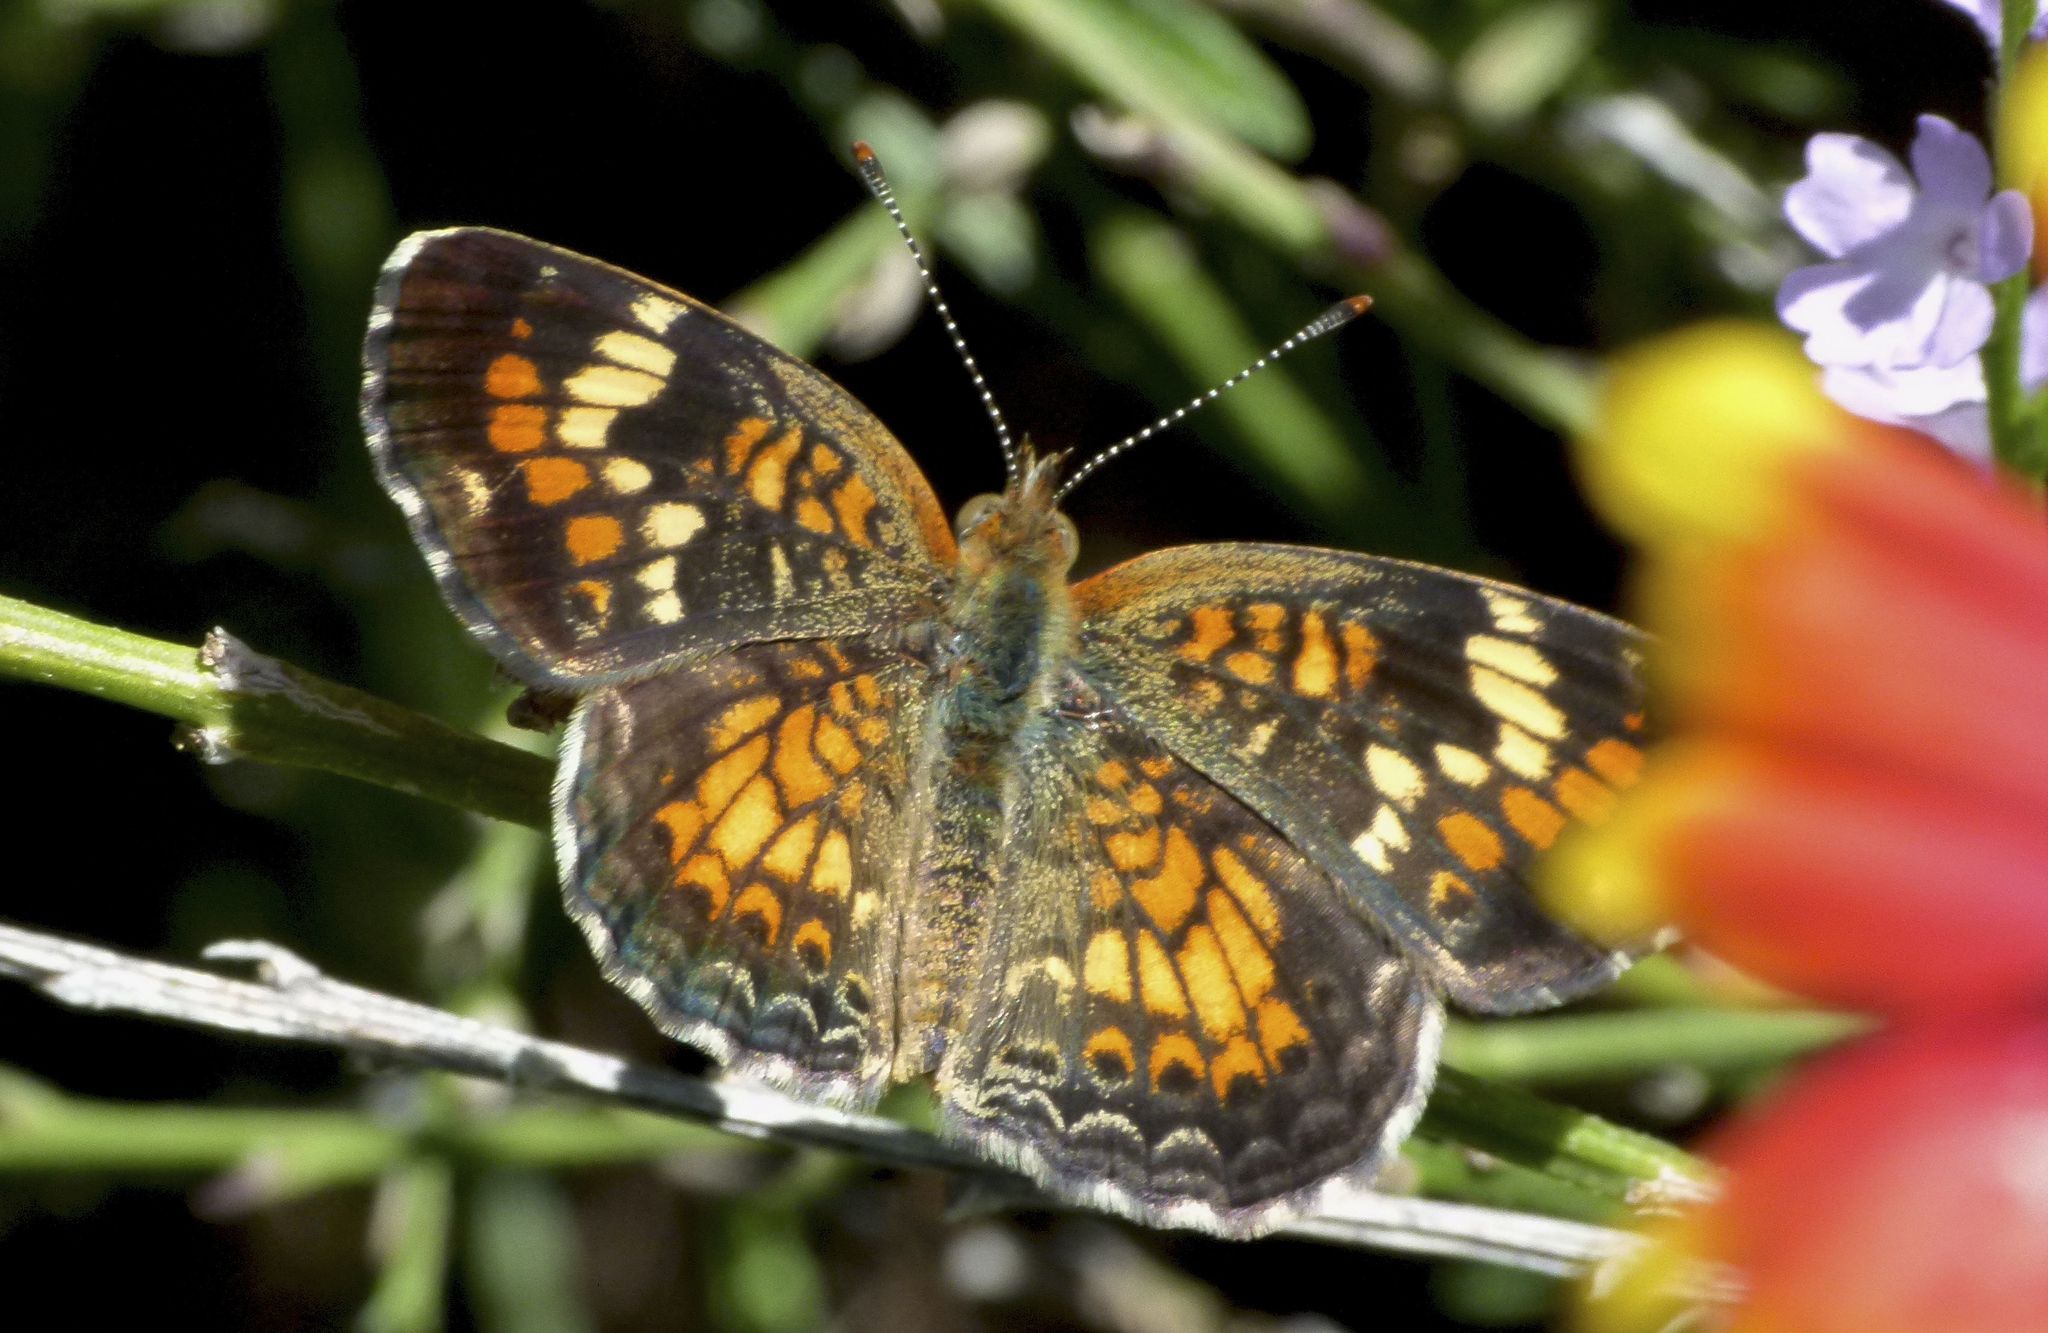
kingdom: Animalia
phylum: Arthropoda
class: Insecta
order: Lepidoptera
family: Nymphalidae
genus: Phyciodes
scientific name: Phyciodes phaon
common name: Phaon crescent
